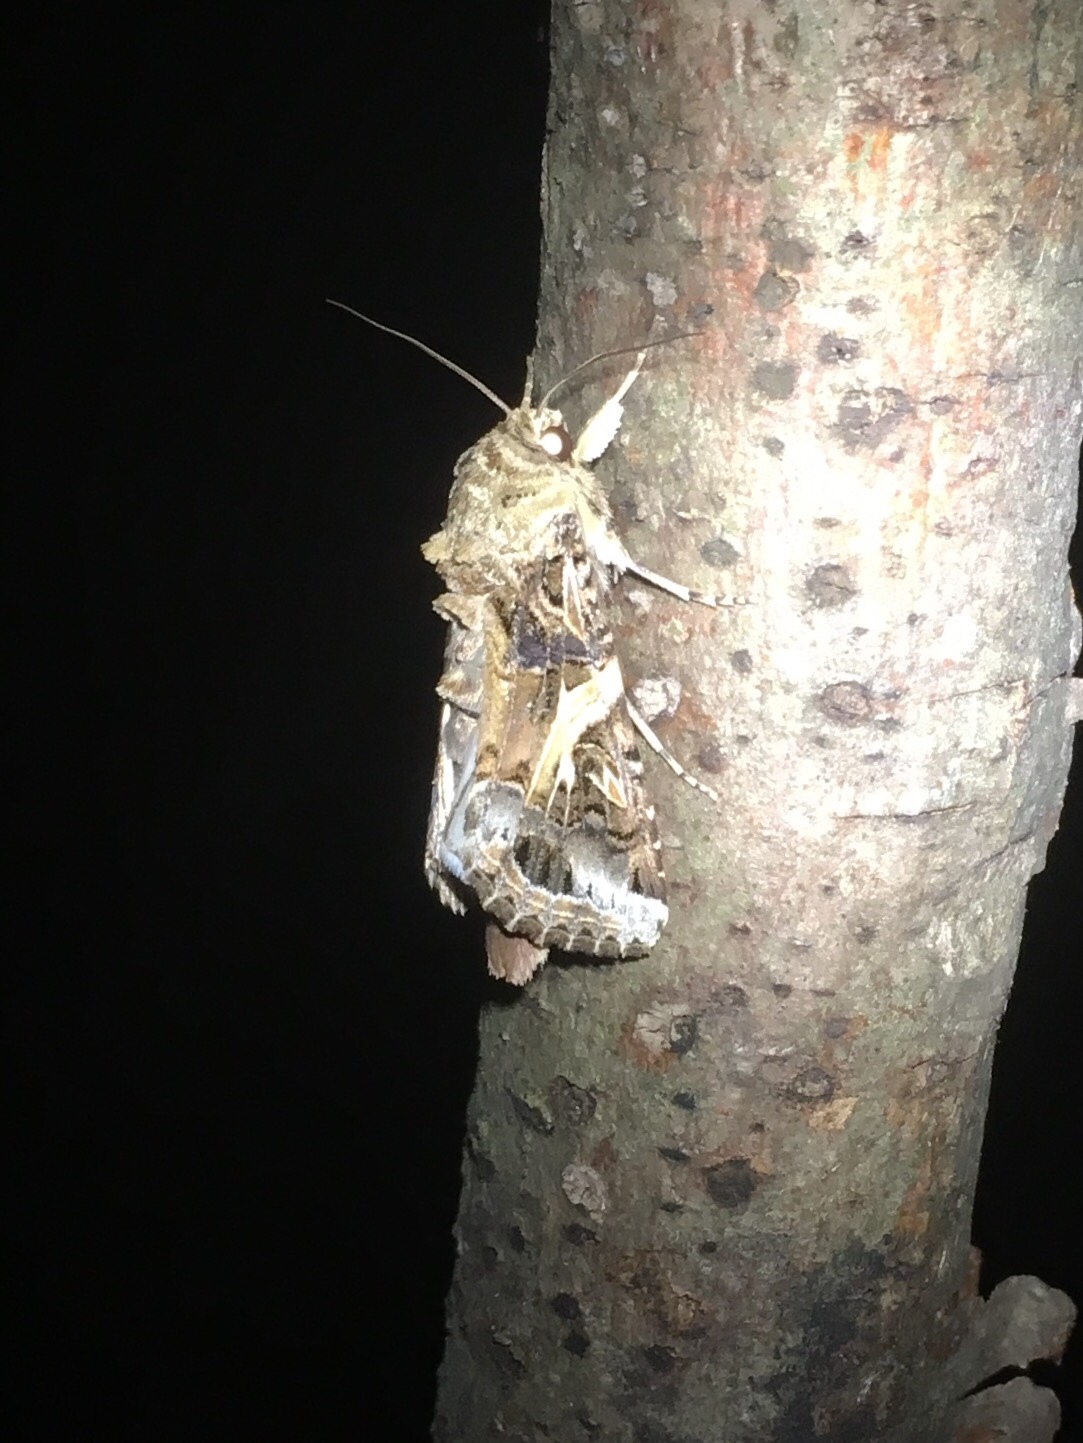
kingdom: Animalia
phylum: Arthropoda
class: Insecta
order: Lepidoptera
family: Noctuidae
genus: Spodoptera
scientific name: Spodoptera ornithogalli
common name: Yellow-striped armyworm
